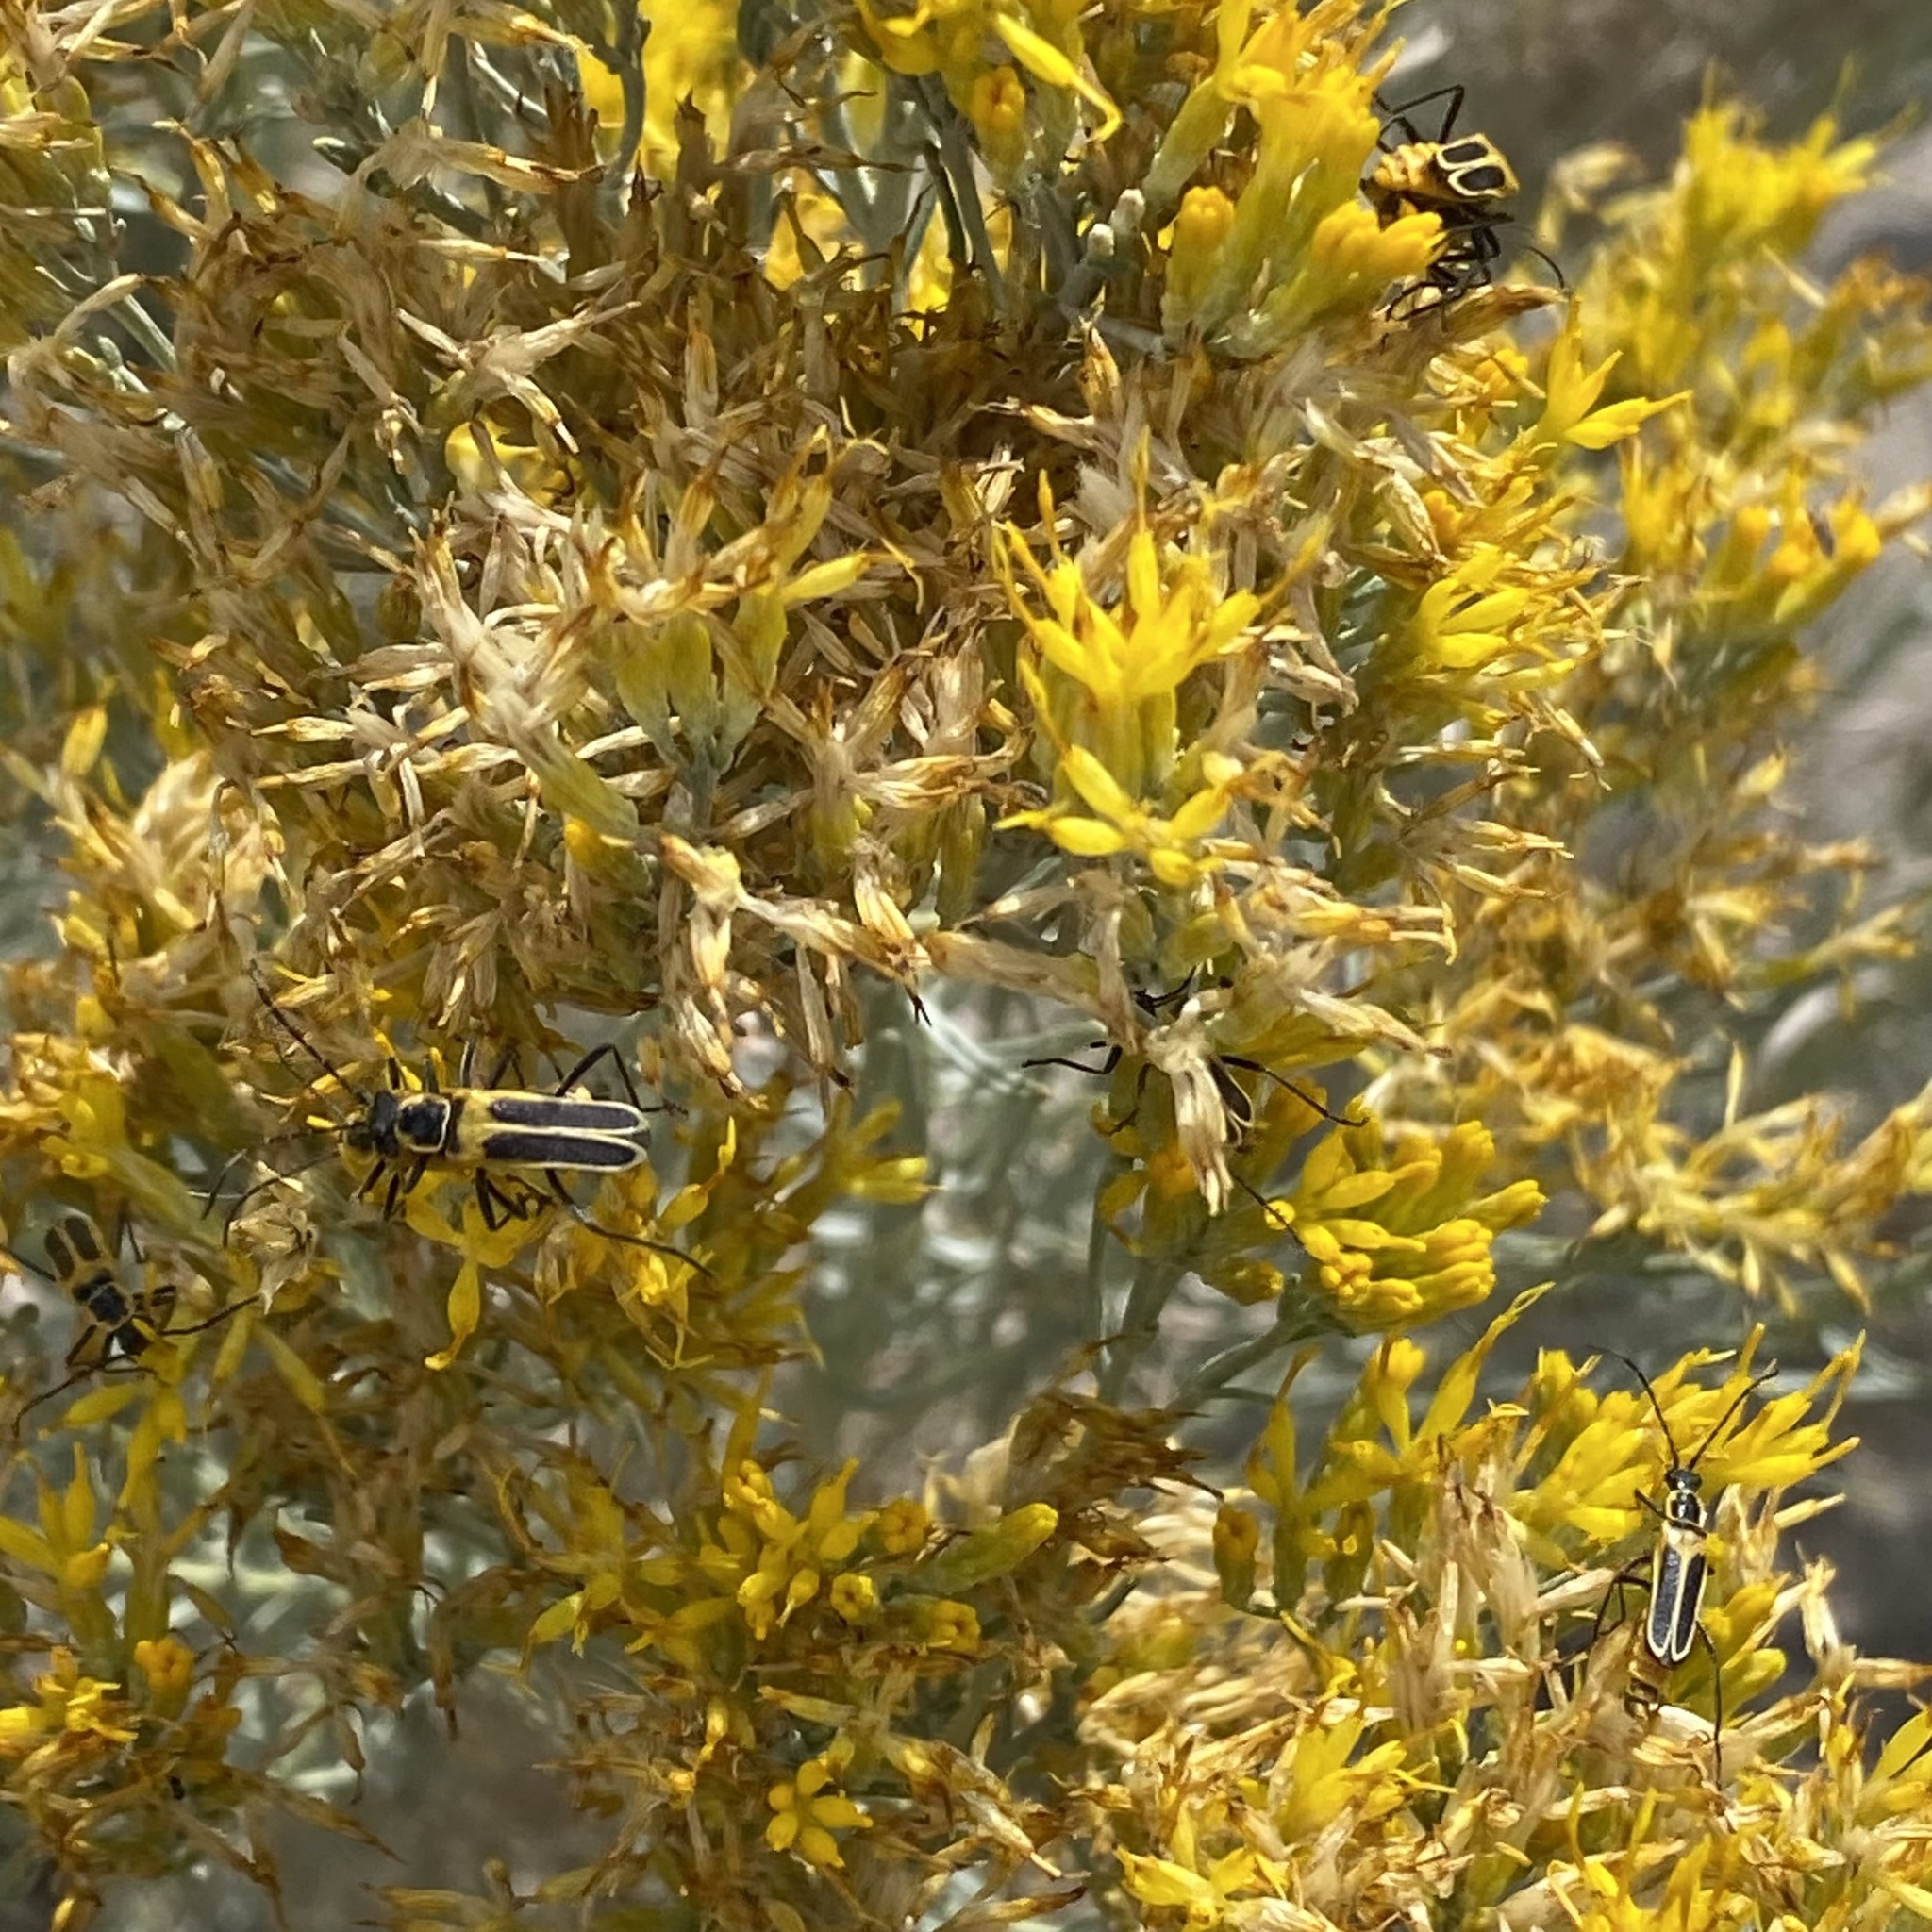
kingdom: Animalia
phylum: Arthropoda
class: Insecta
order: Coleoptera
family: Cantharidae
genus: Chauliognathus
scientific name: Chauliognathus lewisi
